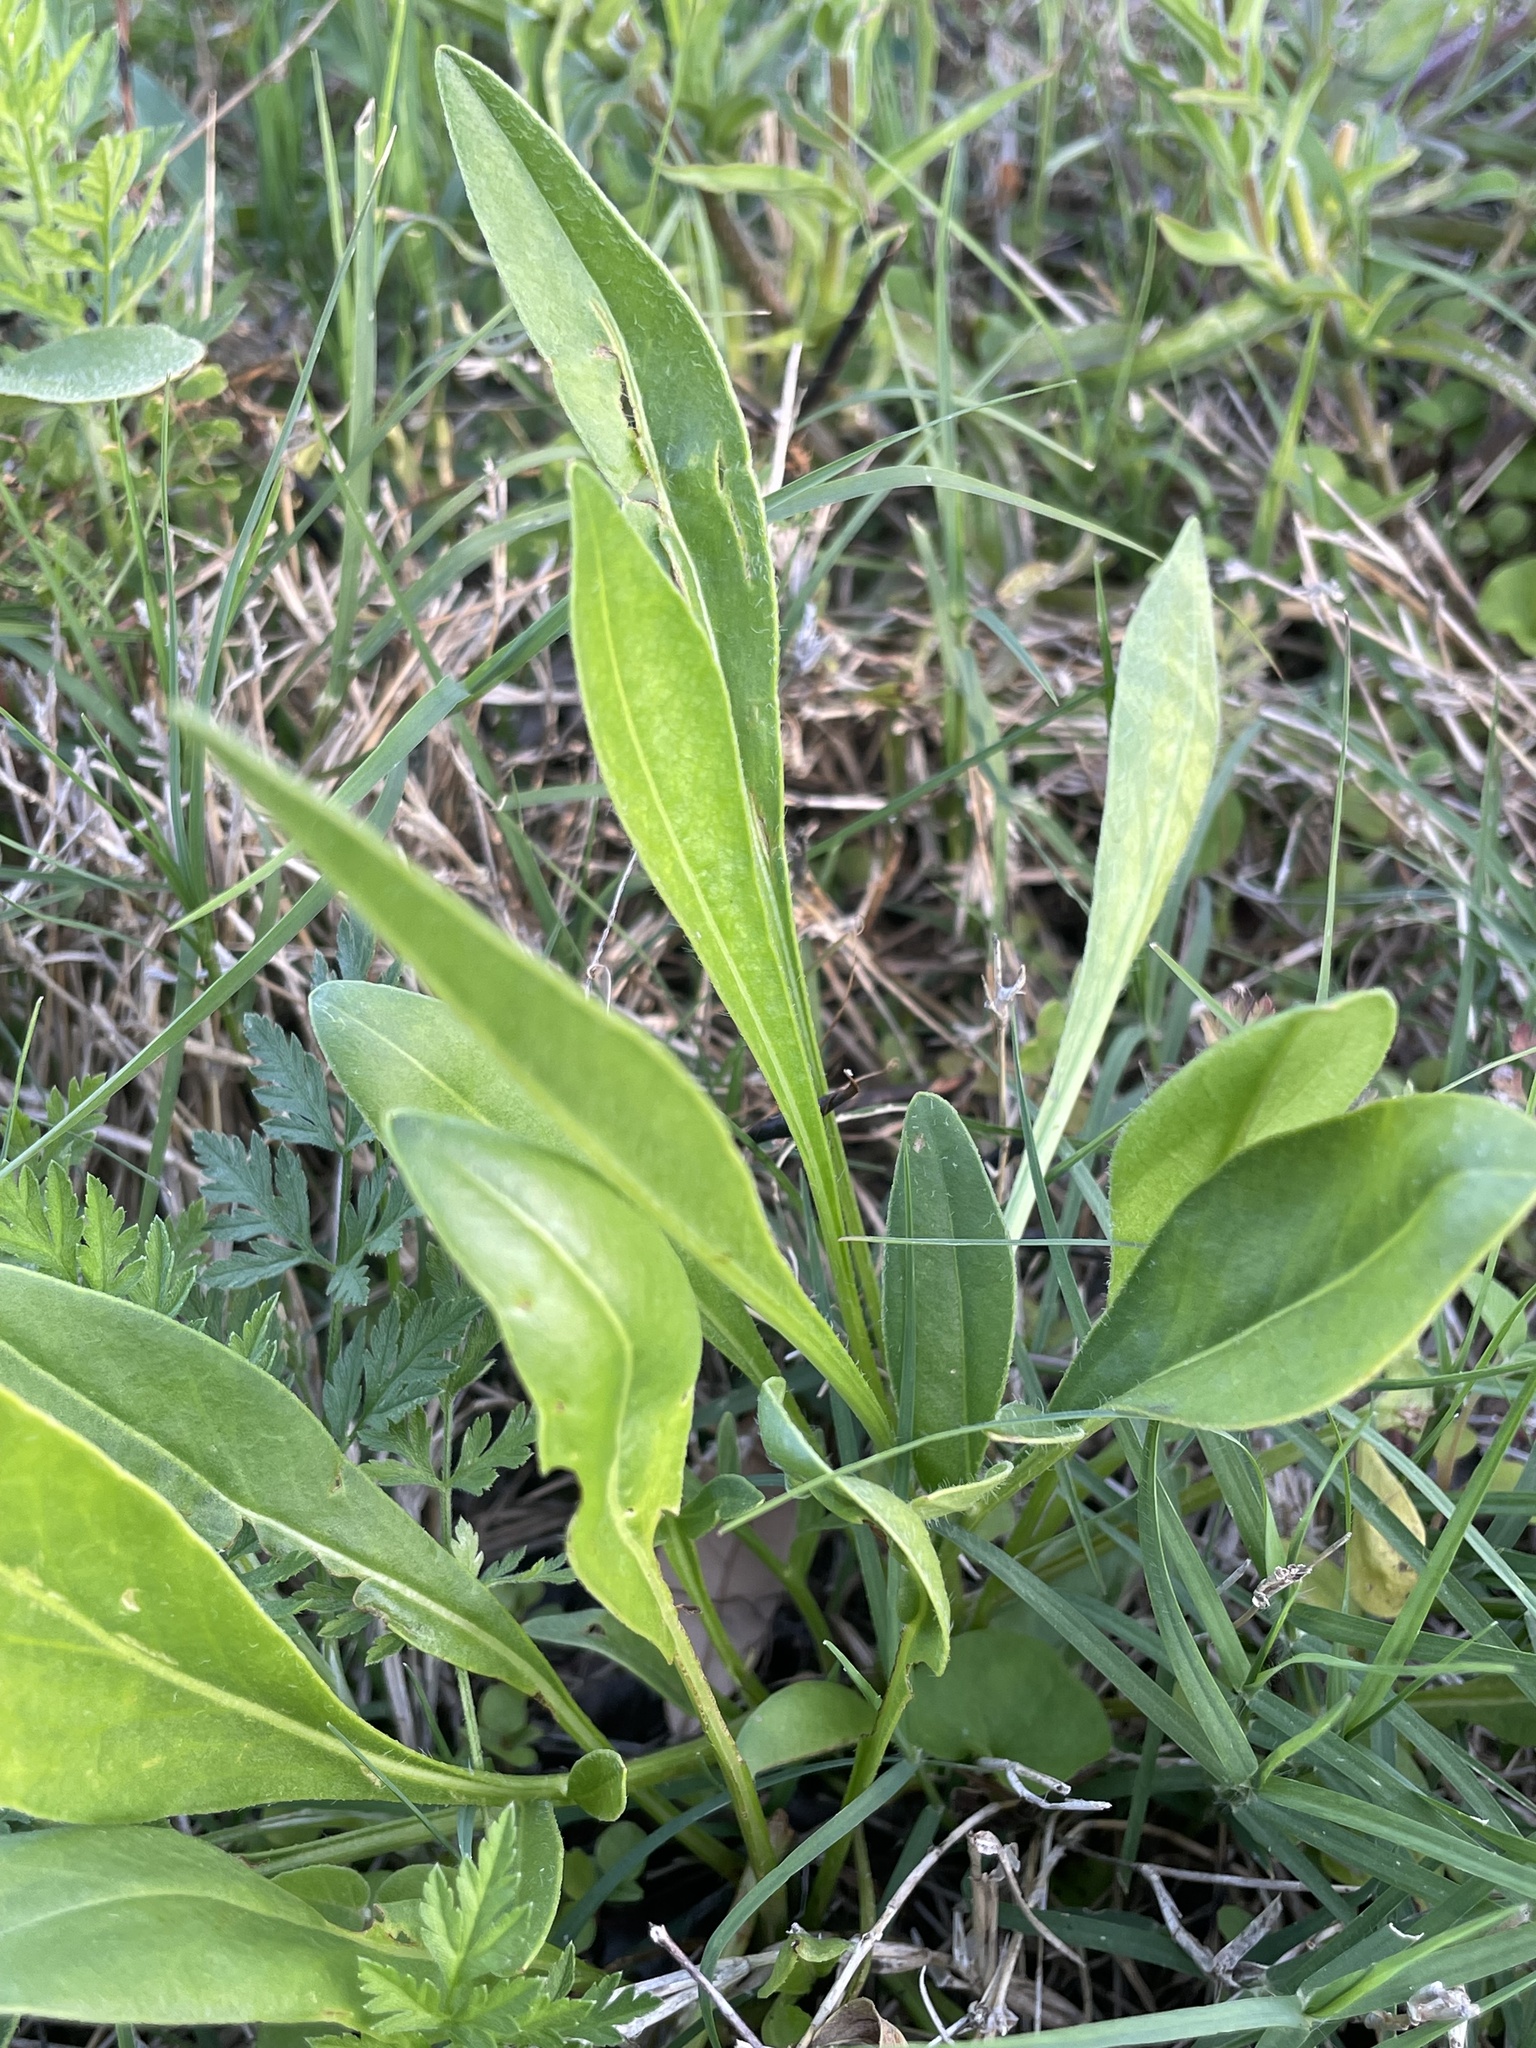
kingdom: Plantae
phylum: Tracheophyta
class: Magnoliopsida
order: Asterales
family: Asteraceae
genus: Coreopsis
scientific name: Coreopsis lanceolata
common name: Garden coreopsis
